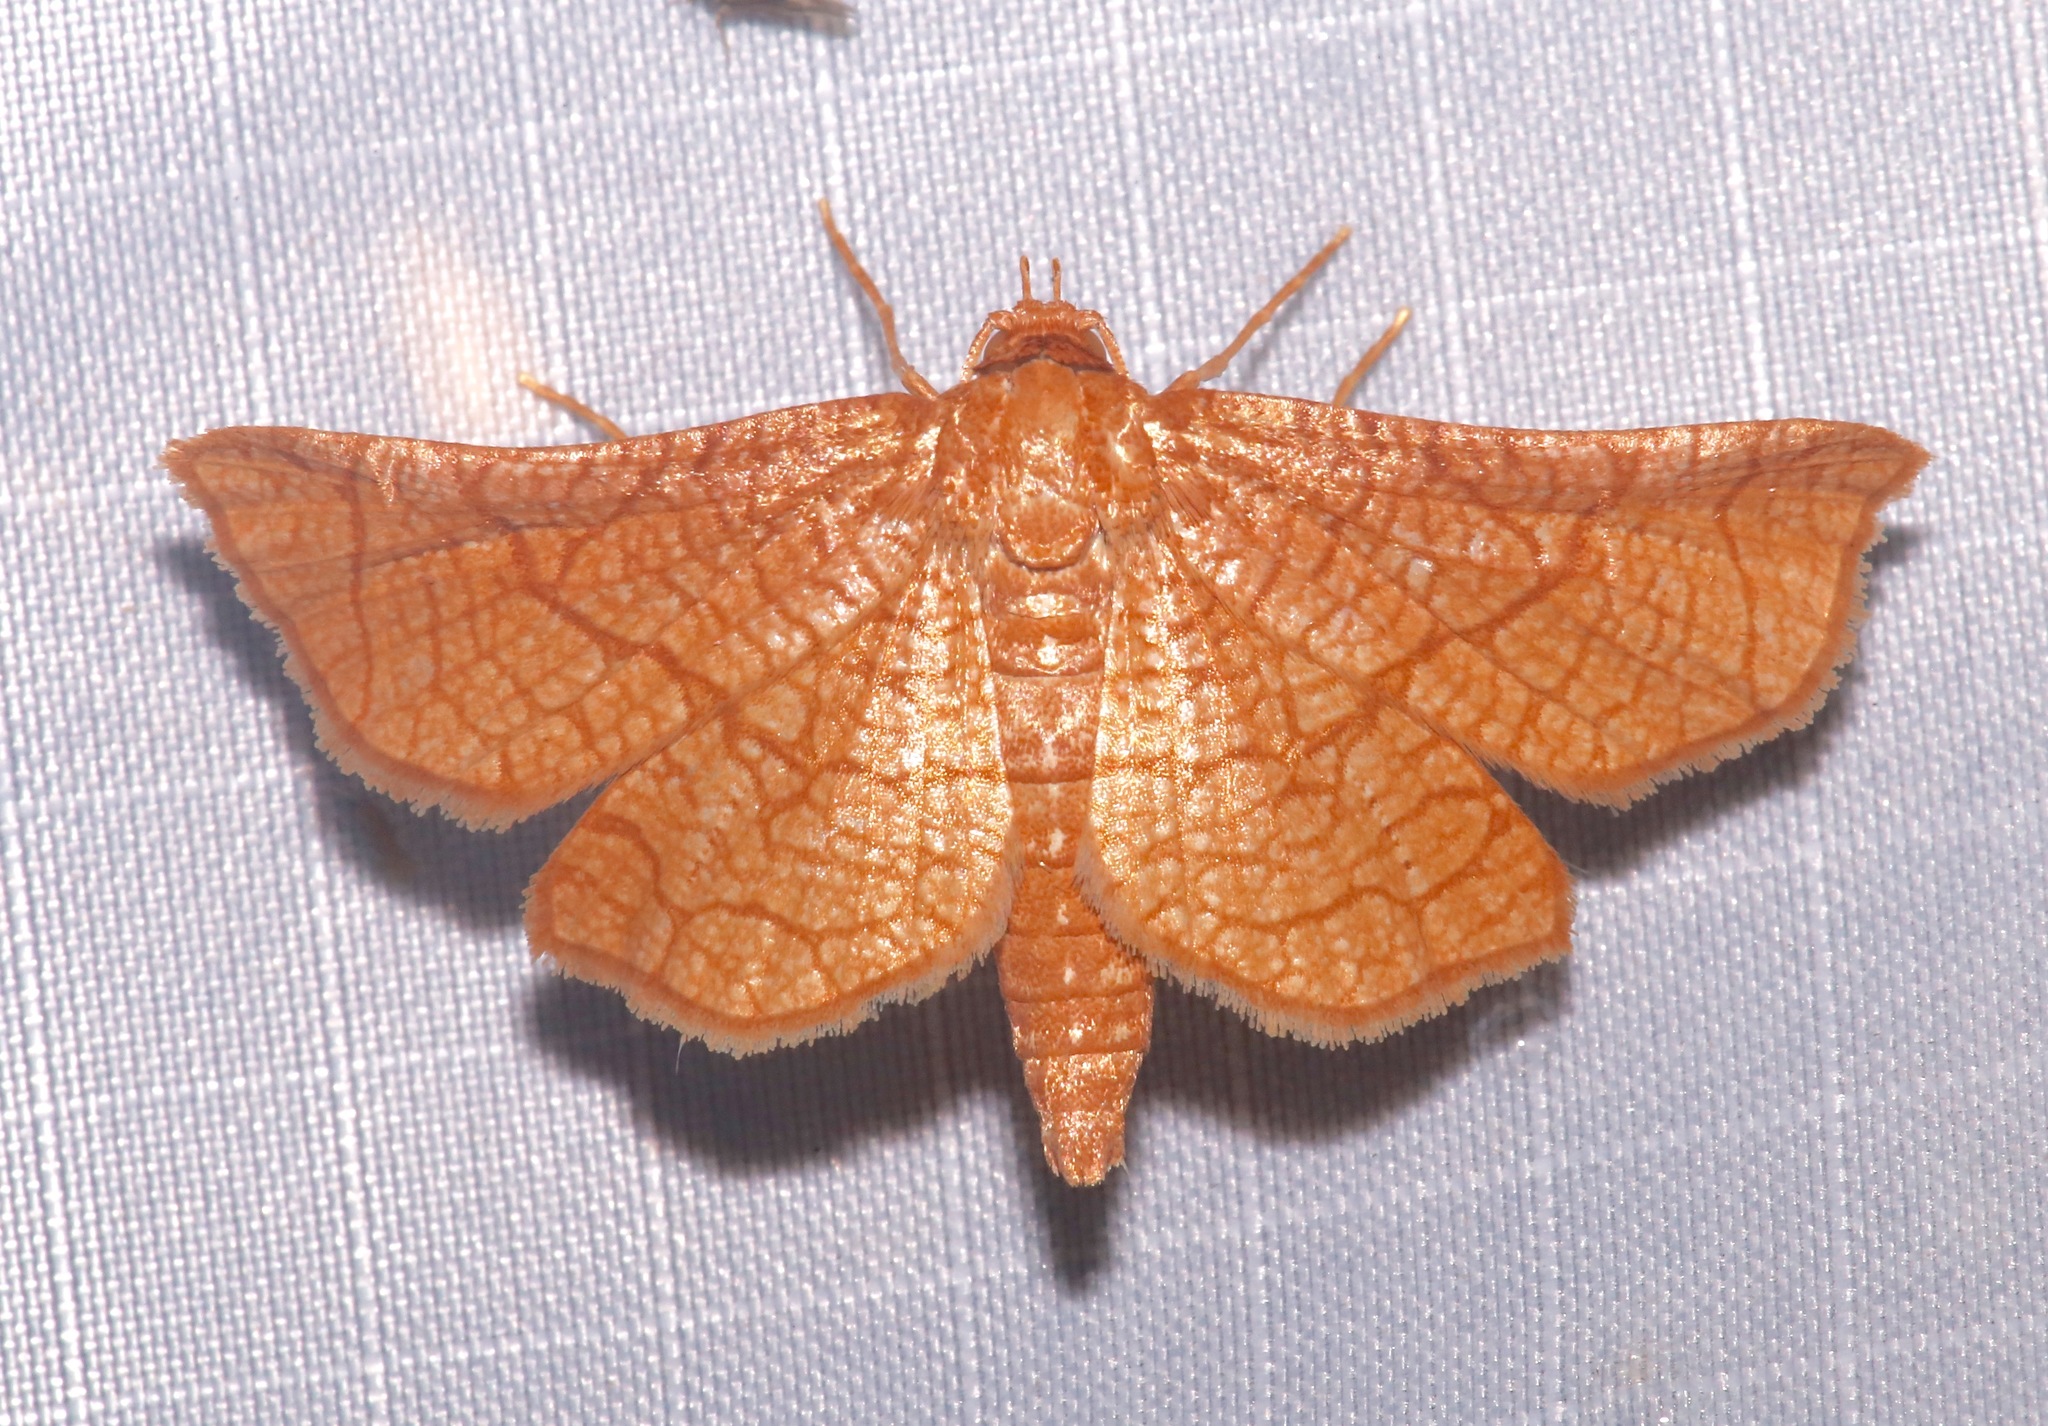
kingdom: Animalia
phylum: Arthropoda
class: Insecta
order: Lepidoptera
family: Thyrididae
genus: Hexeris
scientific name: Hexeris enhydris
